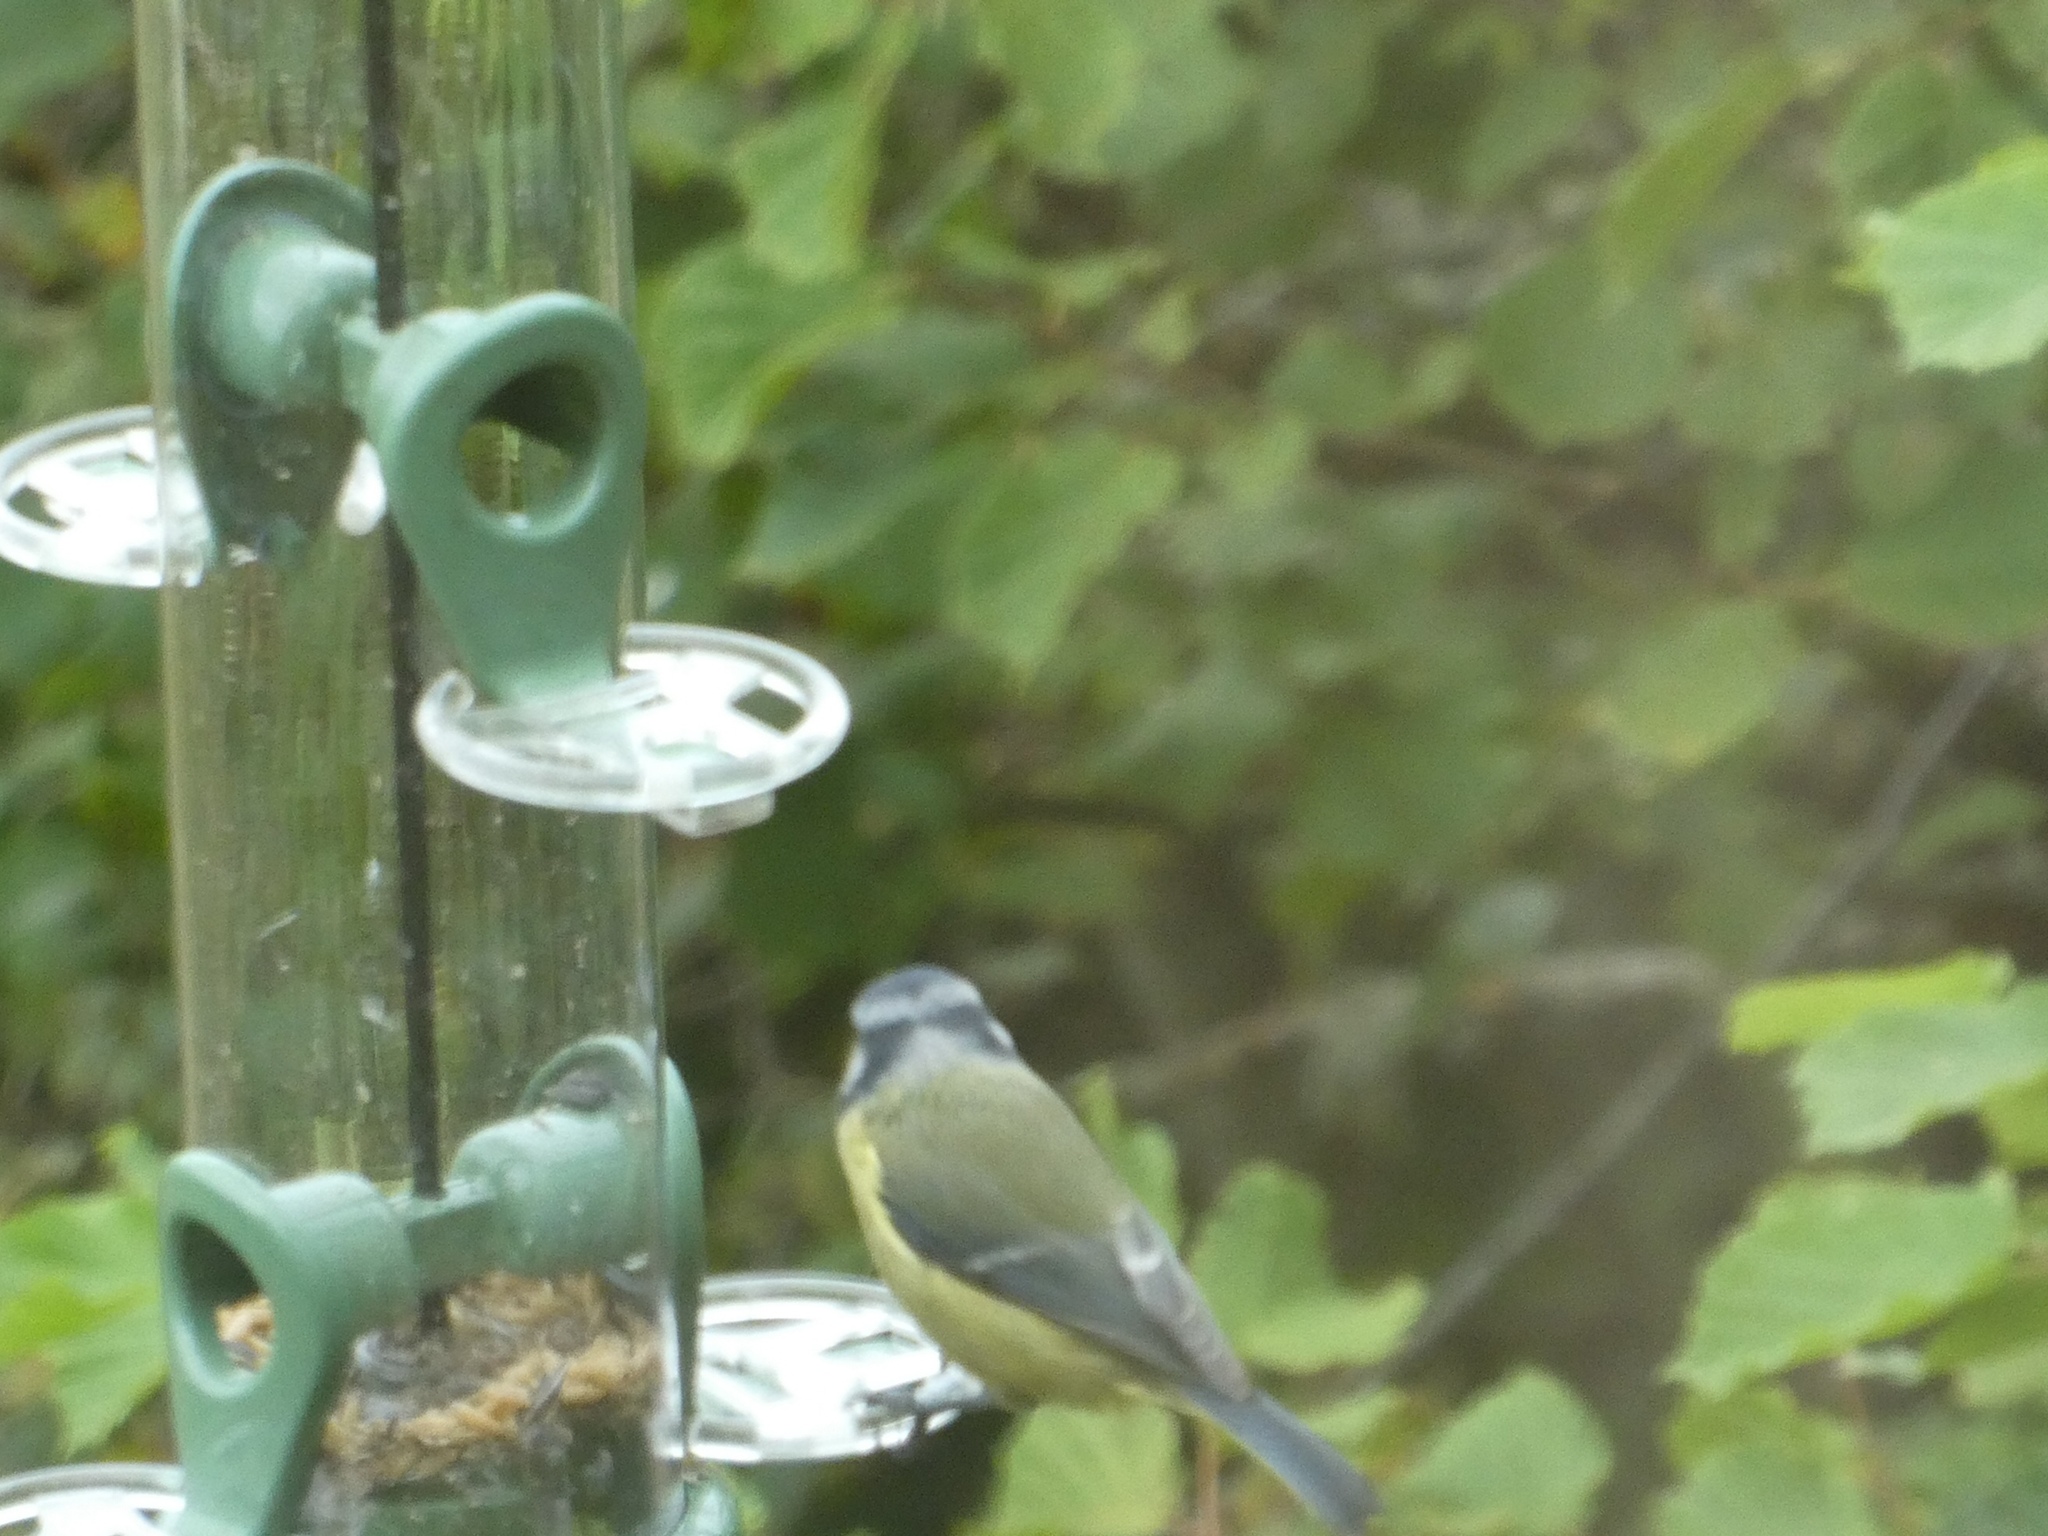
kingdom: Animalia
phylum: Chordata
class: Aves
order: Passeriformes
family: Paridae
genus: Cyanistes
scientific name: Cyanistes caeruleus
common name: Eurasian blue tit
